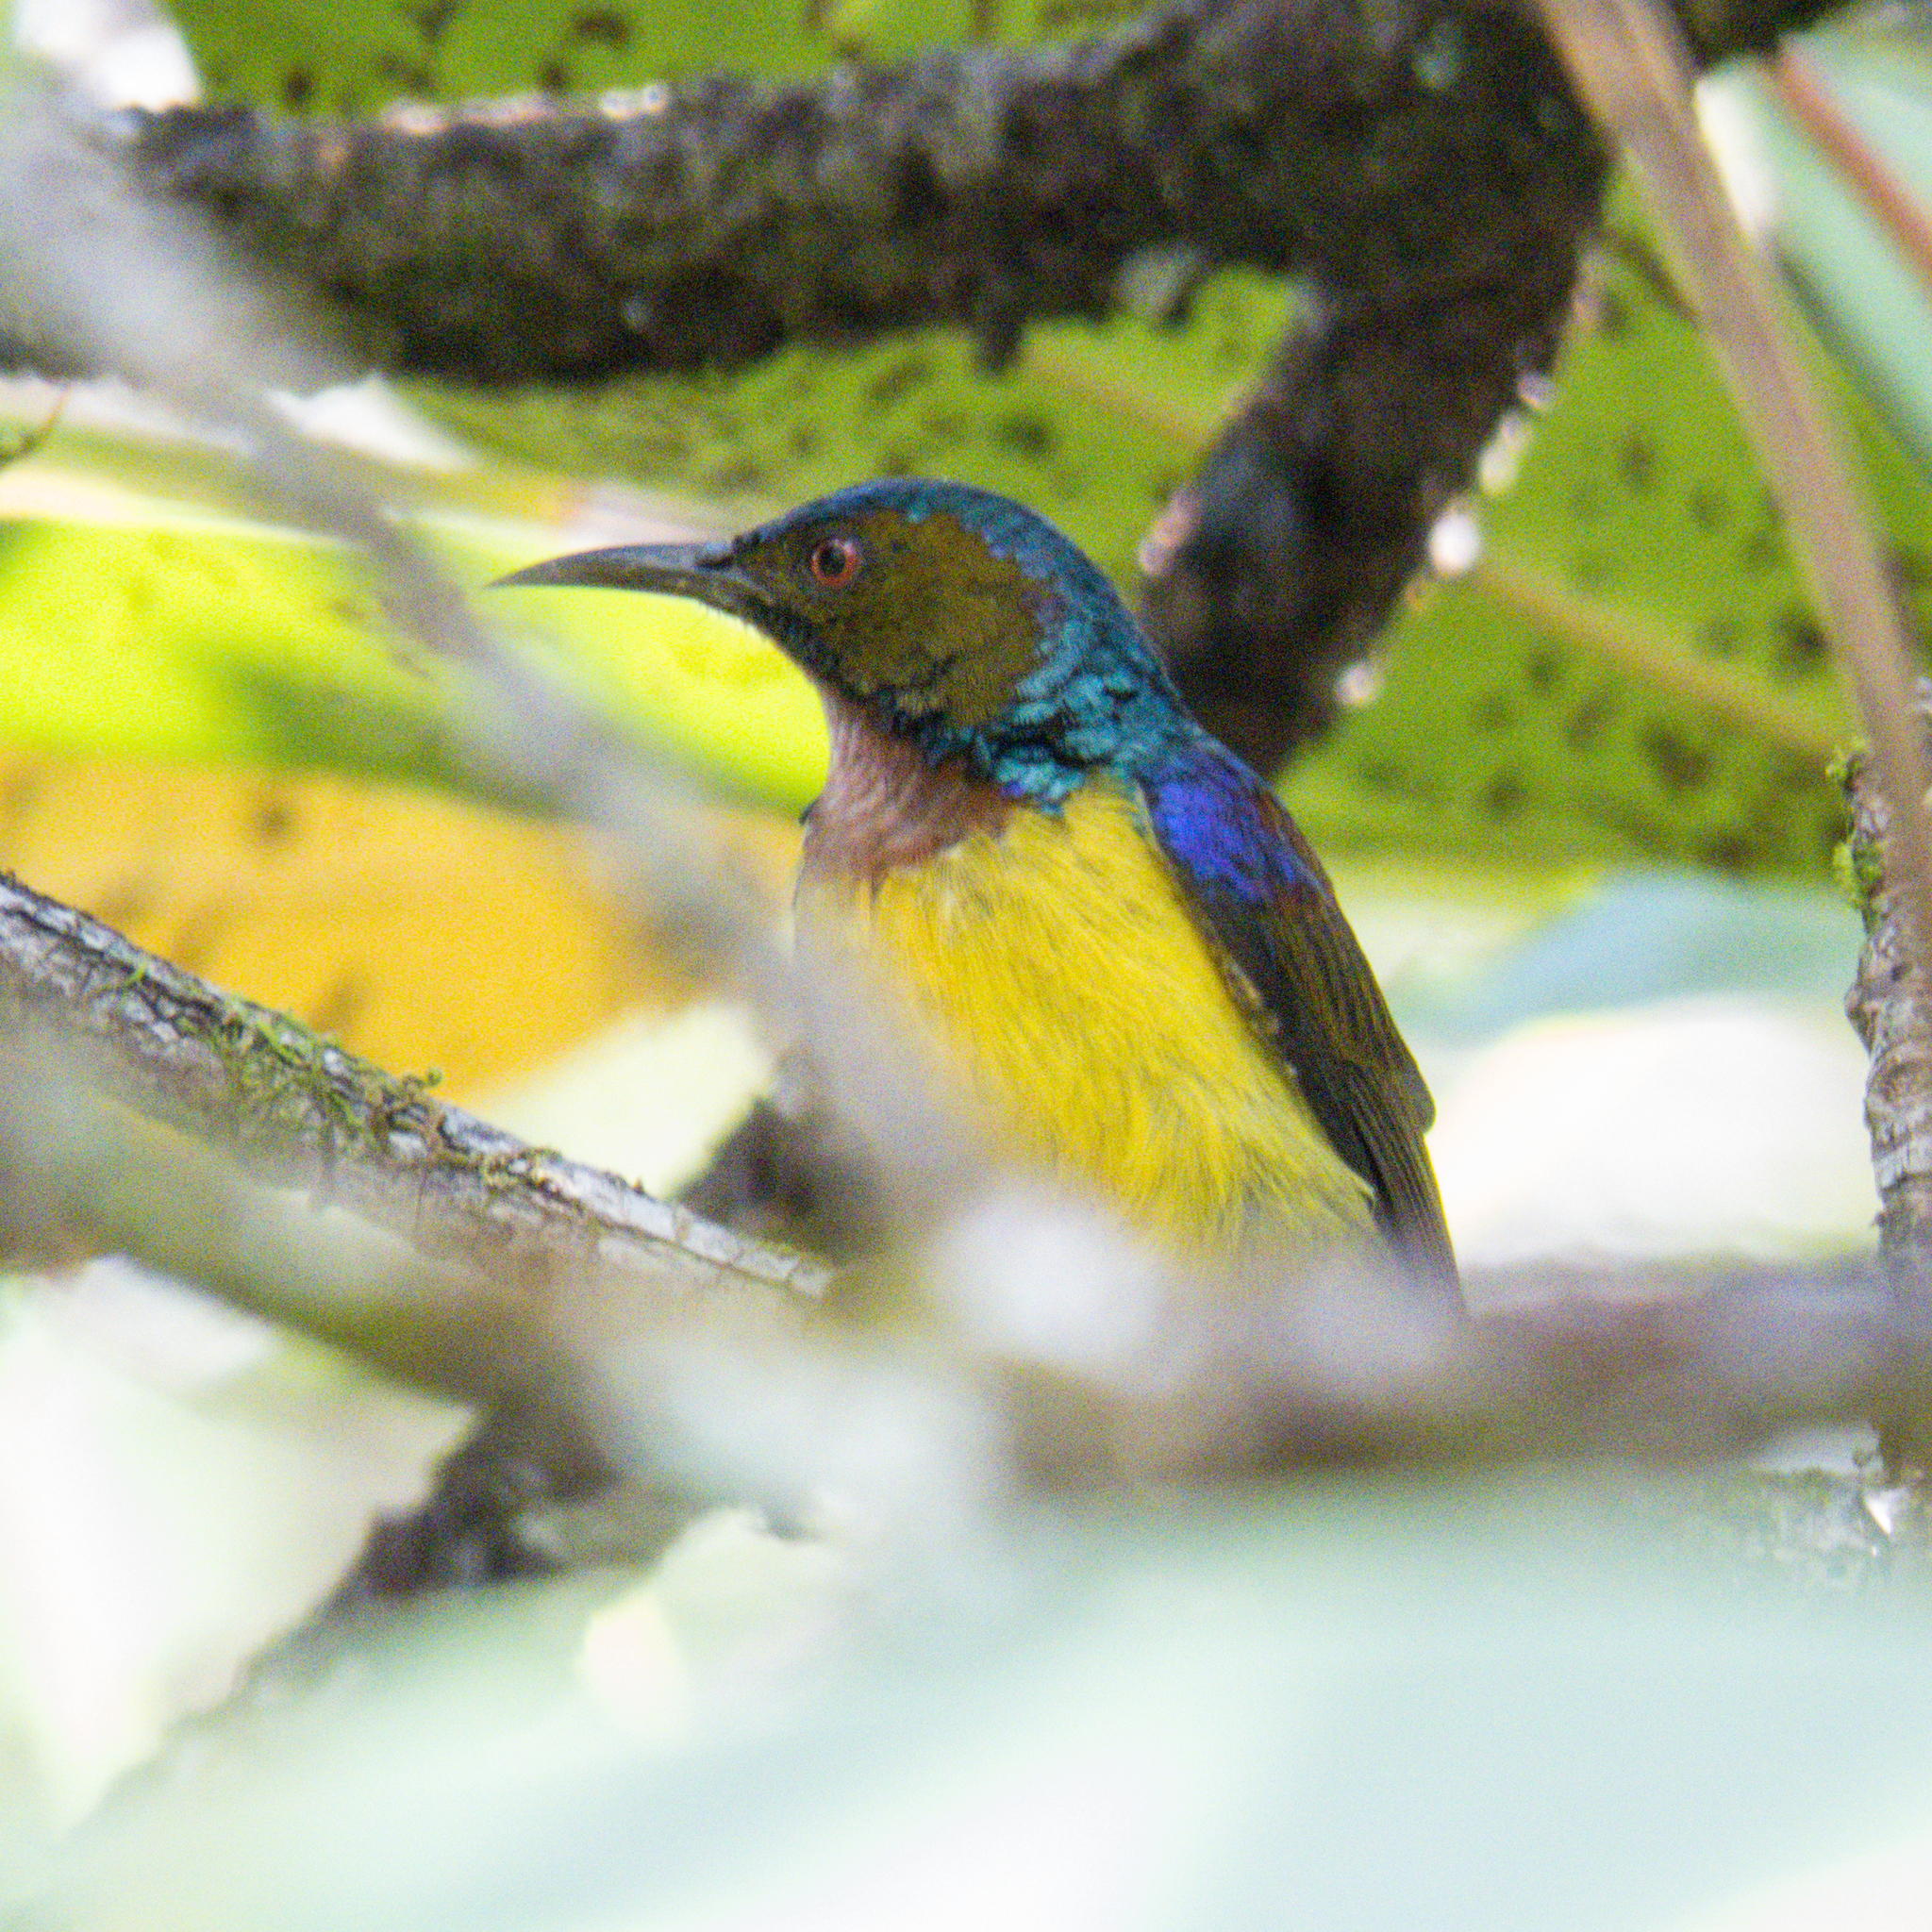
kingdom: Animalia
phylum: Chordata
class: Aves
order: Passeriformes
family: Nectariniidae
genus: Anthreptes
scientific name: Anthreptes malacensis
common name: Brown-throated sunbird
